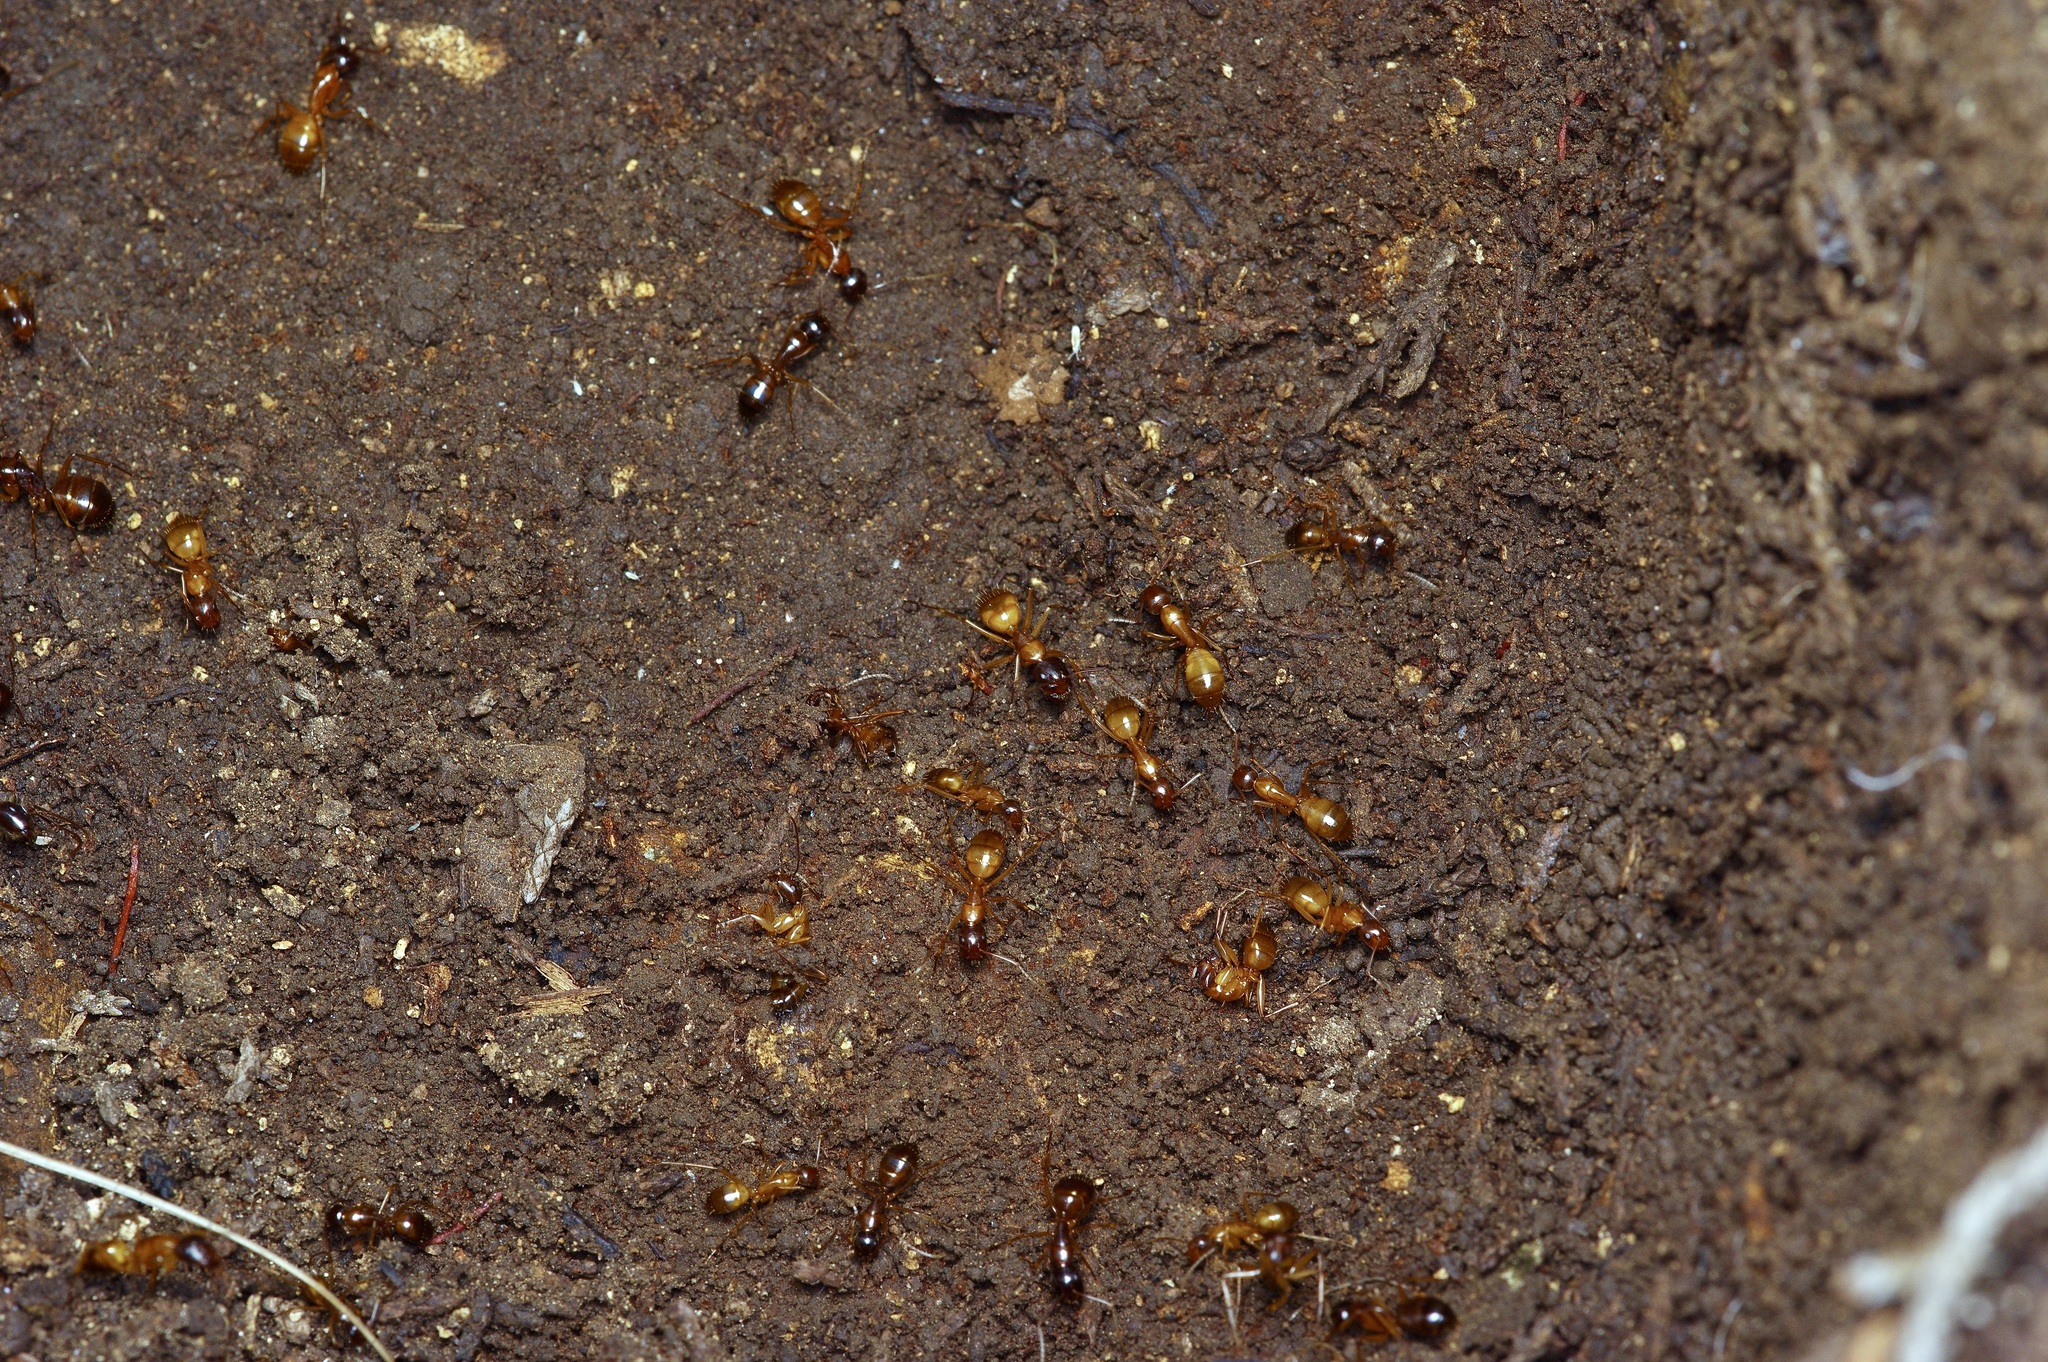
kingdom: Animalia
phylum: Arthropoda
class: Insecta
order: Hymenoptera
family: Formicidae
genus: Camponotus
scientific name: Camponotus sansabeanus
